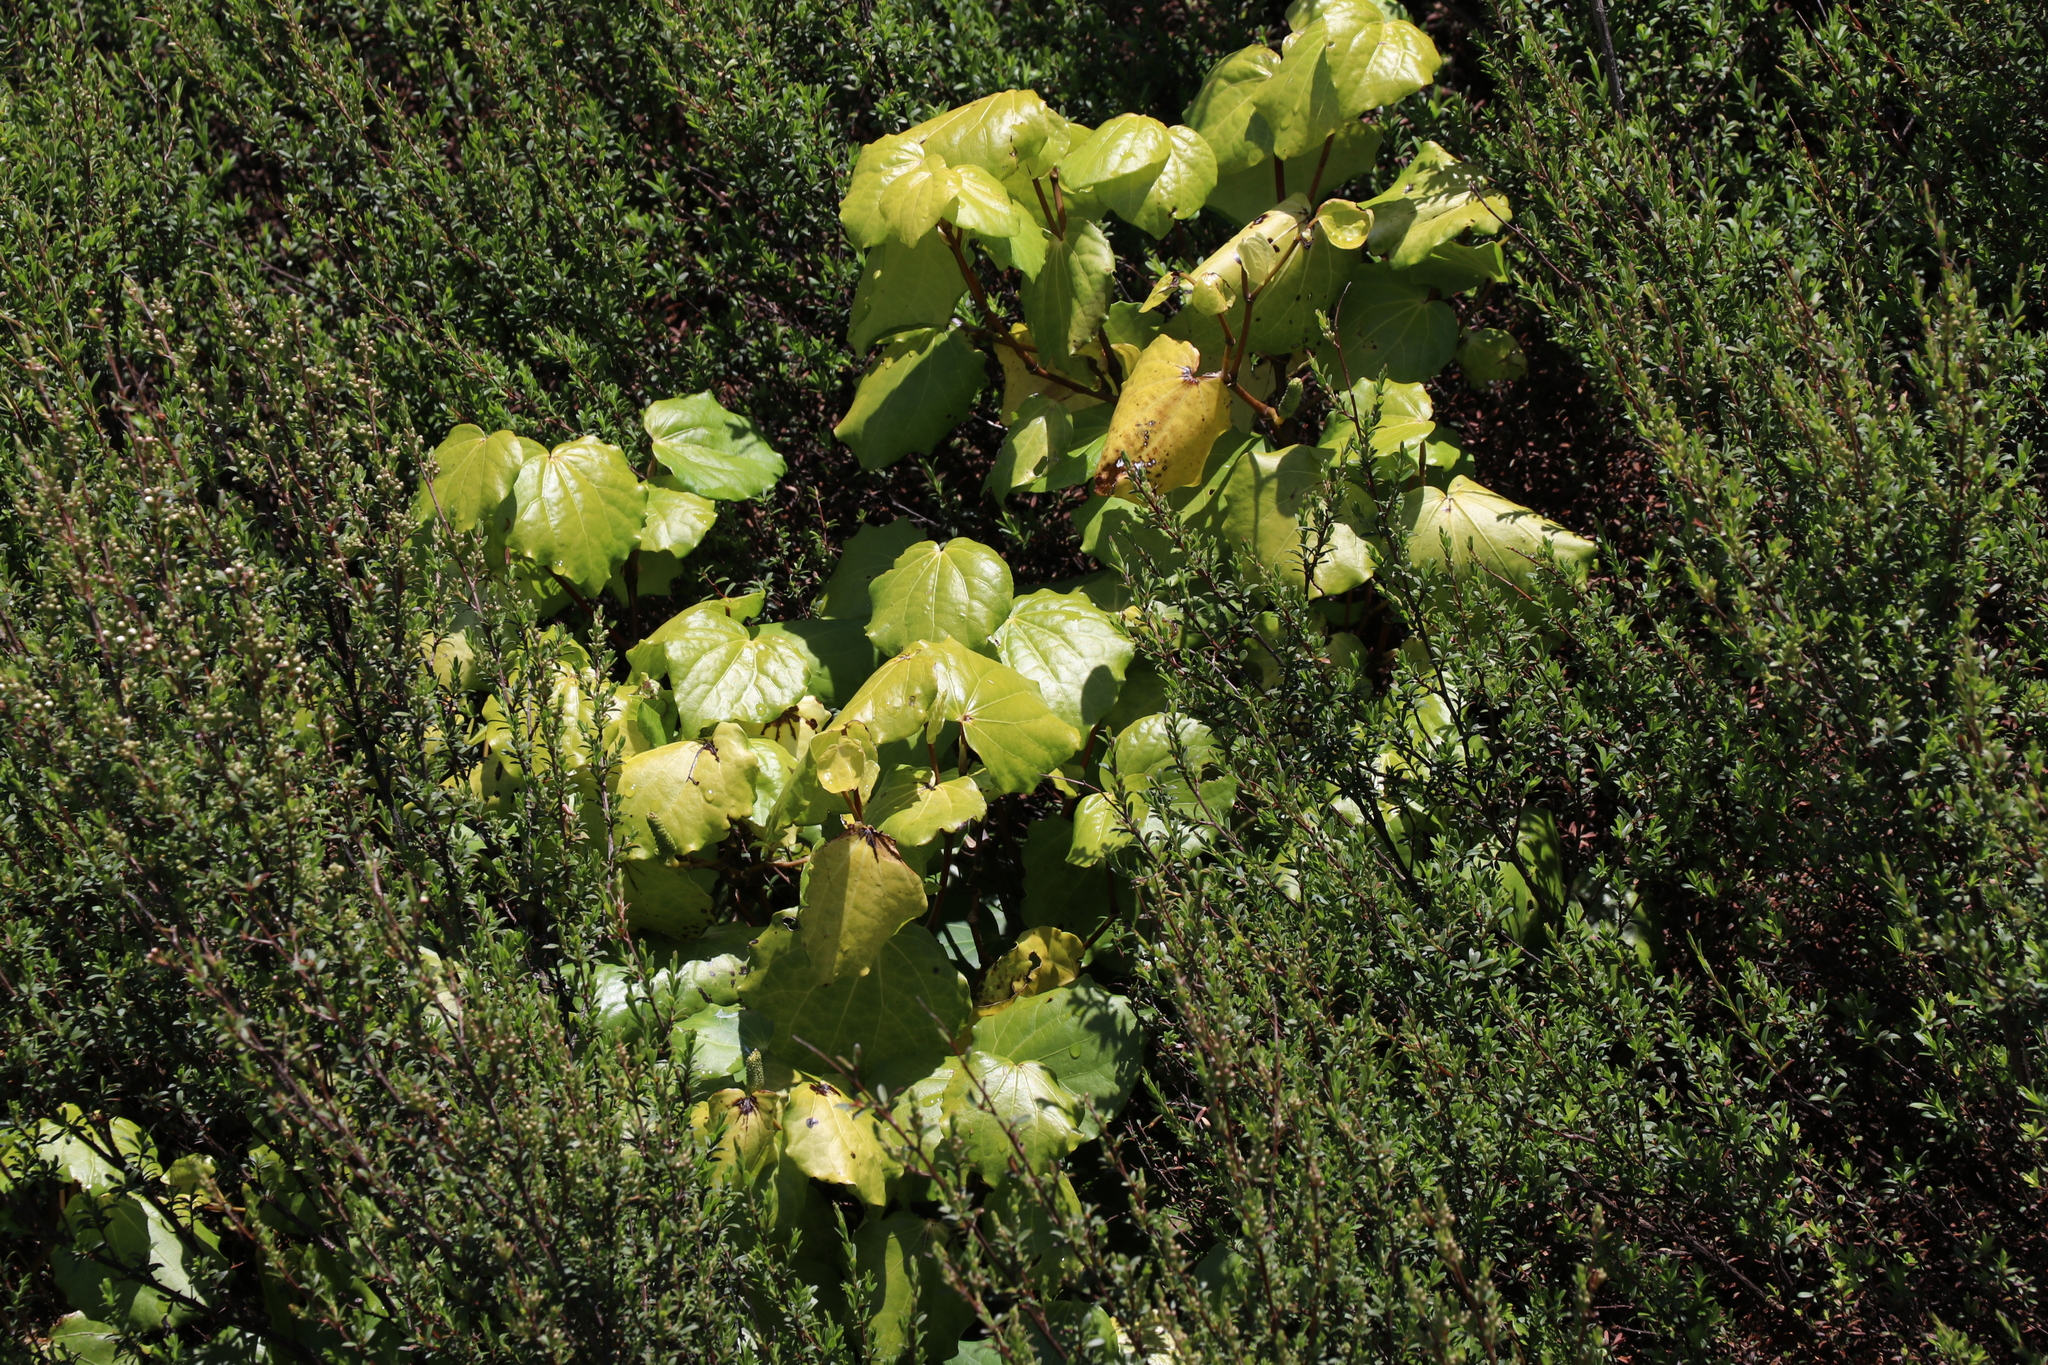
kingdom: Plantae
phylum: Tracheophyta
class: Magnoliopsida
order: Piperales
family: Piperaceae
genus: Macropiper
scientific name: Macropiper excelsum
